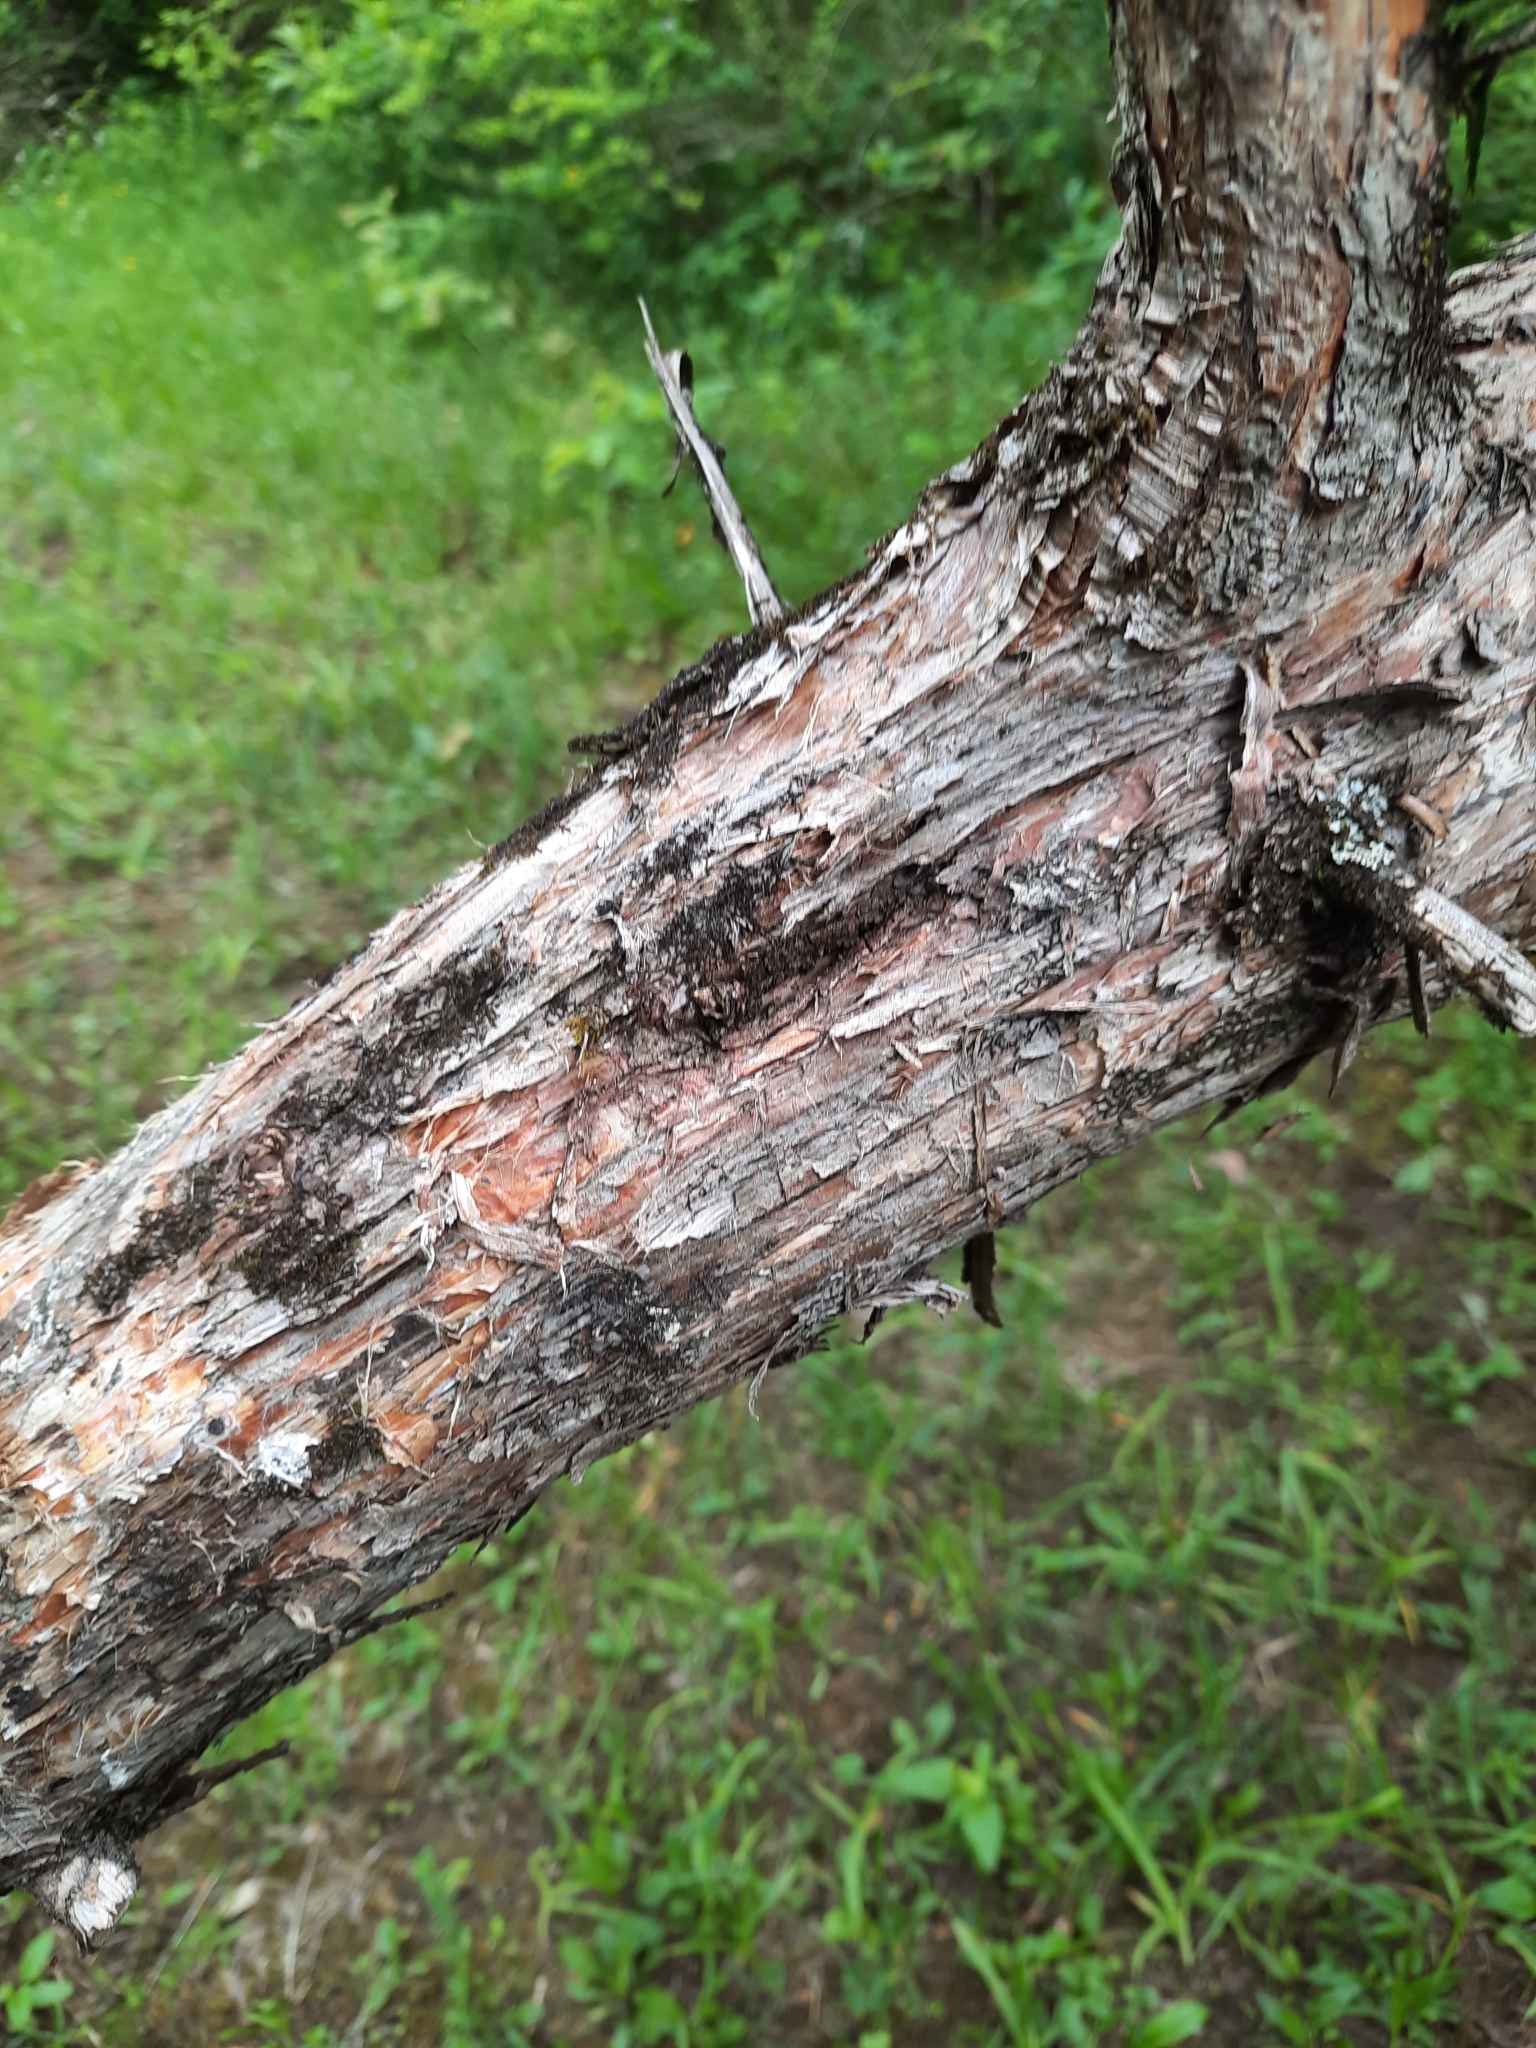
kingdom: Plantae
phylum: Tracheophyta
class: Pinopsida
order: Pinales
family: Cupressaceae
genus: Juniperus
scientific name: Juniperus virginiana
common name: Red juniper
